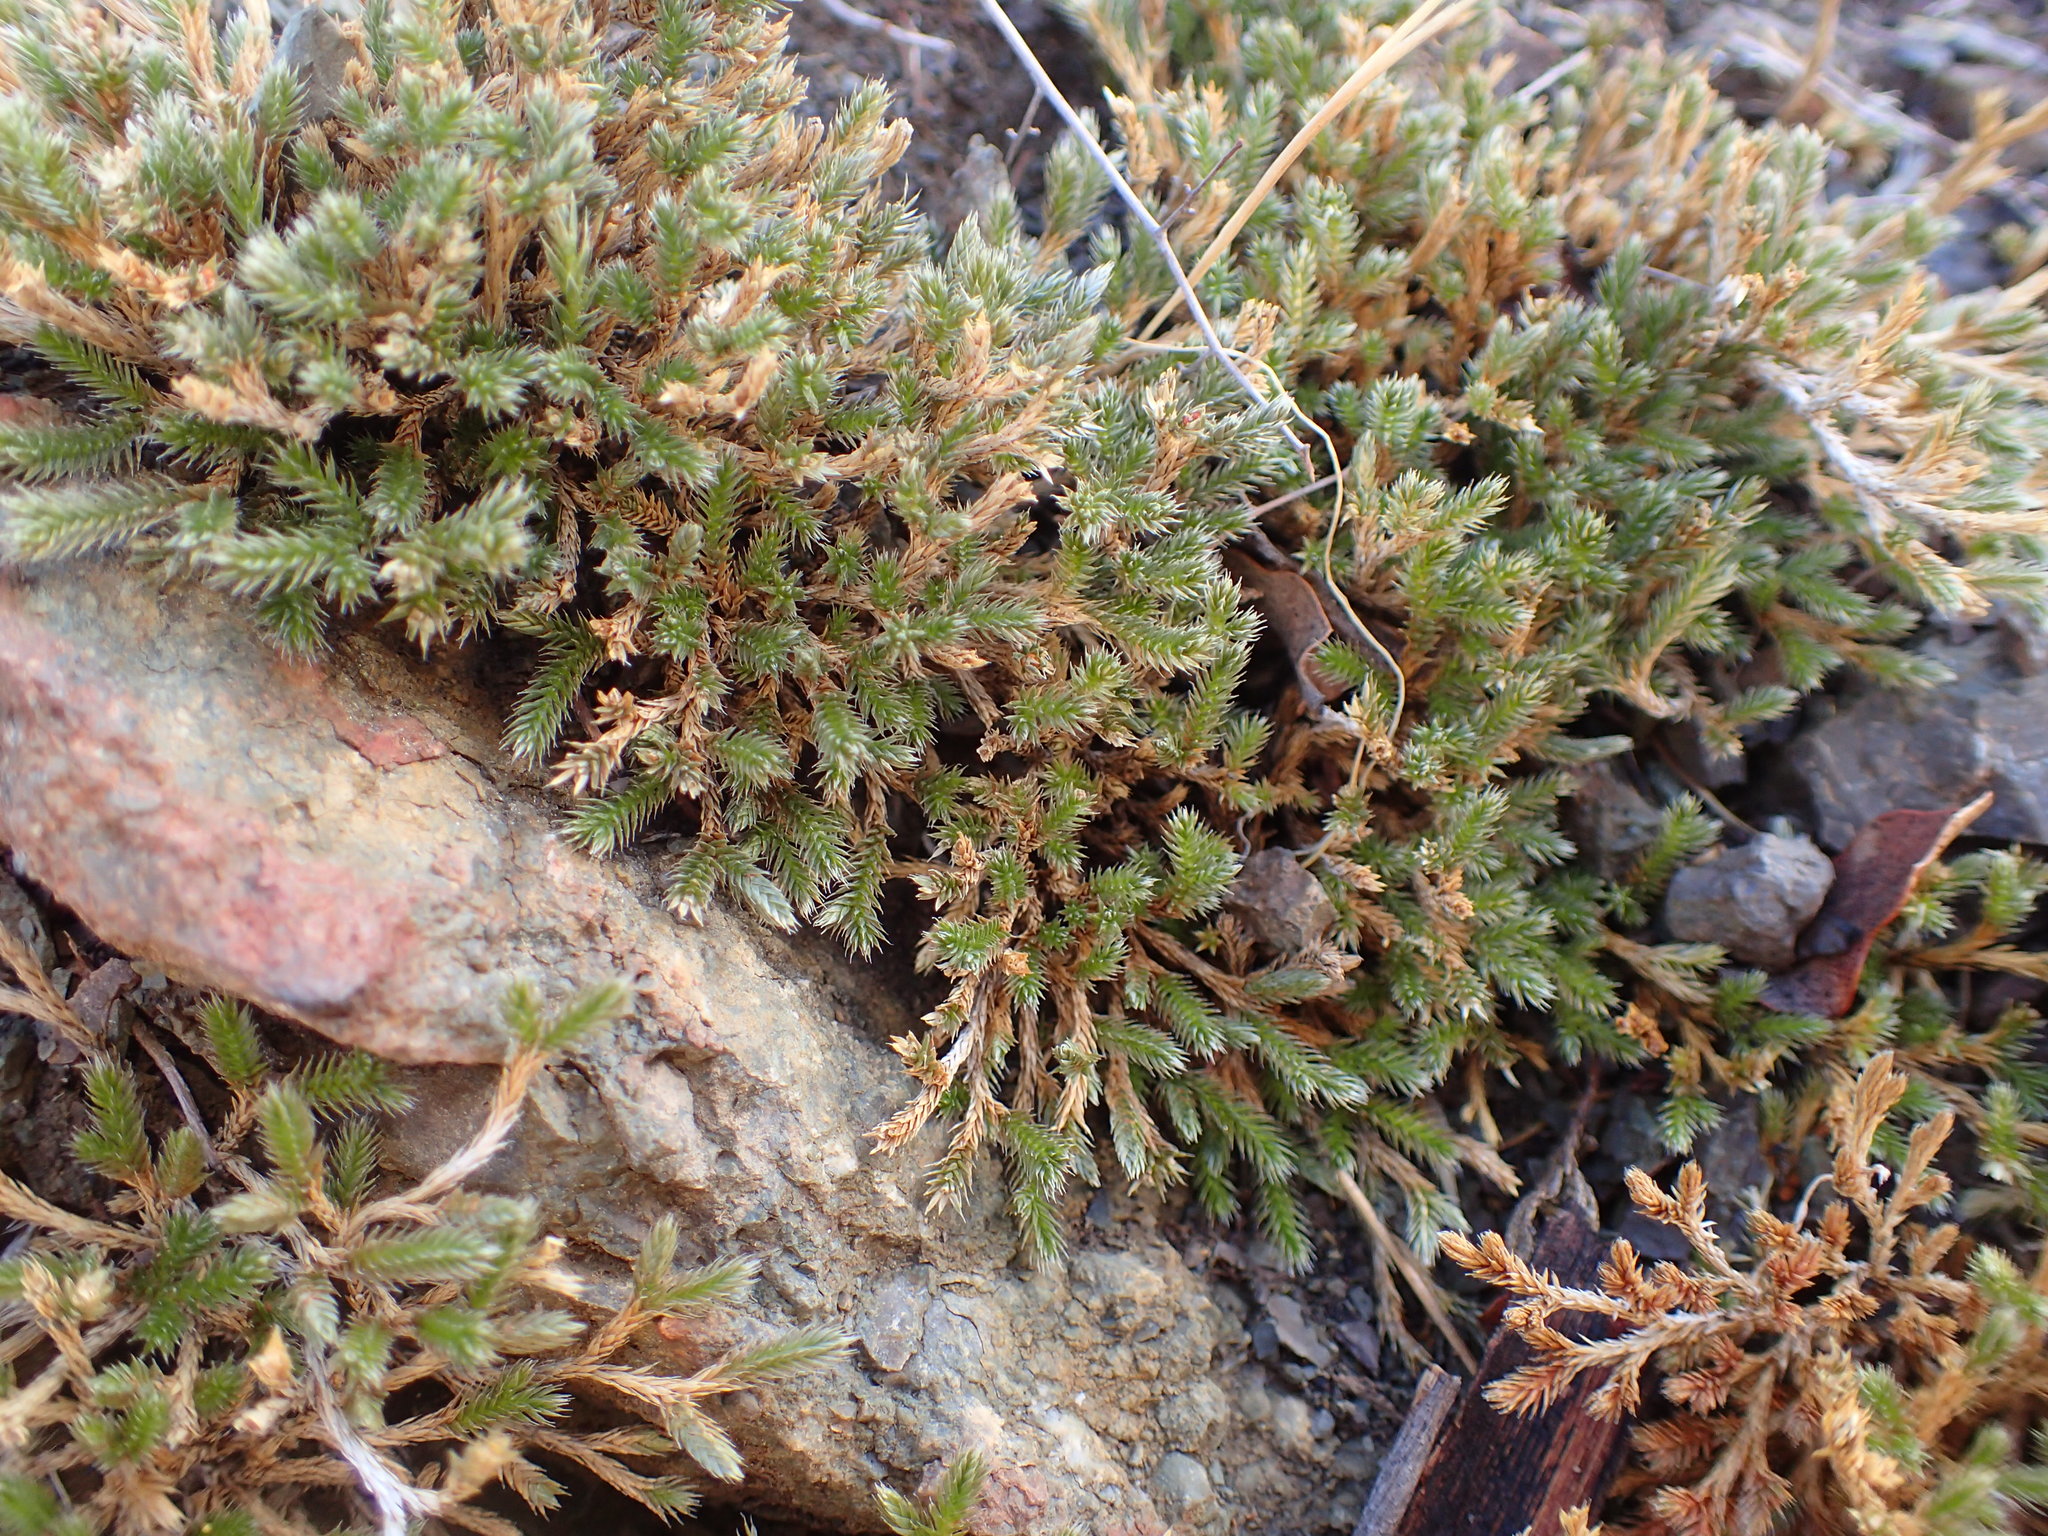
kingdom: Plantae
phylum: Tracheophyta
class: Lycopodiopsida
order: Selaginellales
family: Selaginellaceae
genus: Selaginella
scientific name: Selaginella bigelovii
